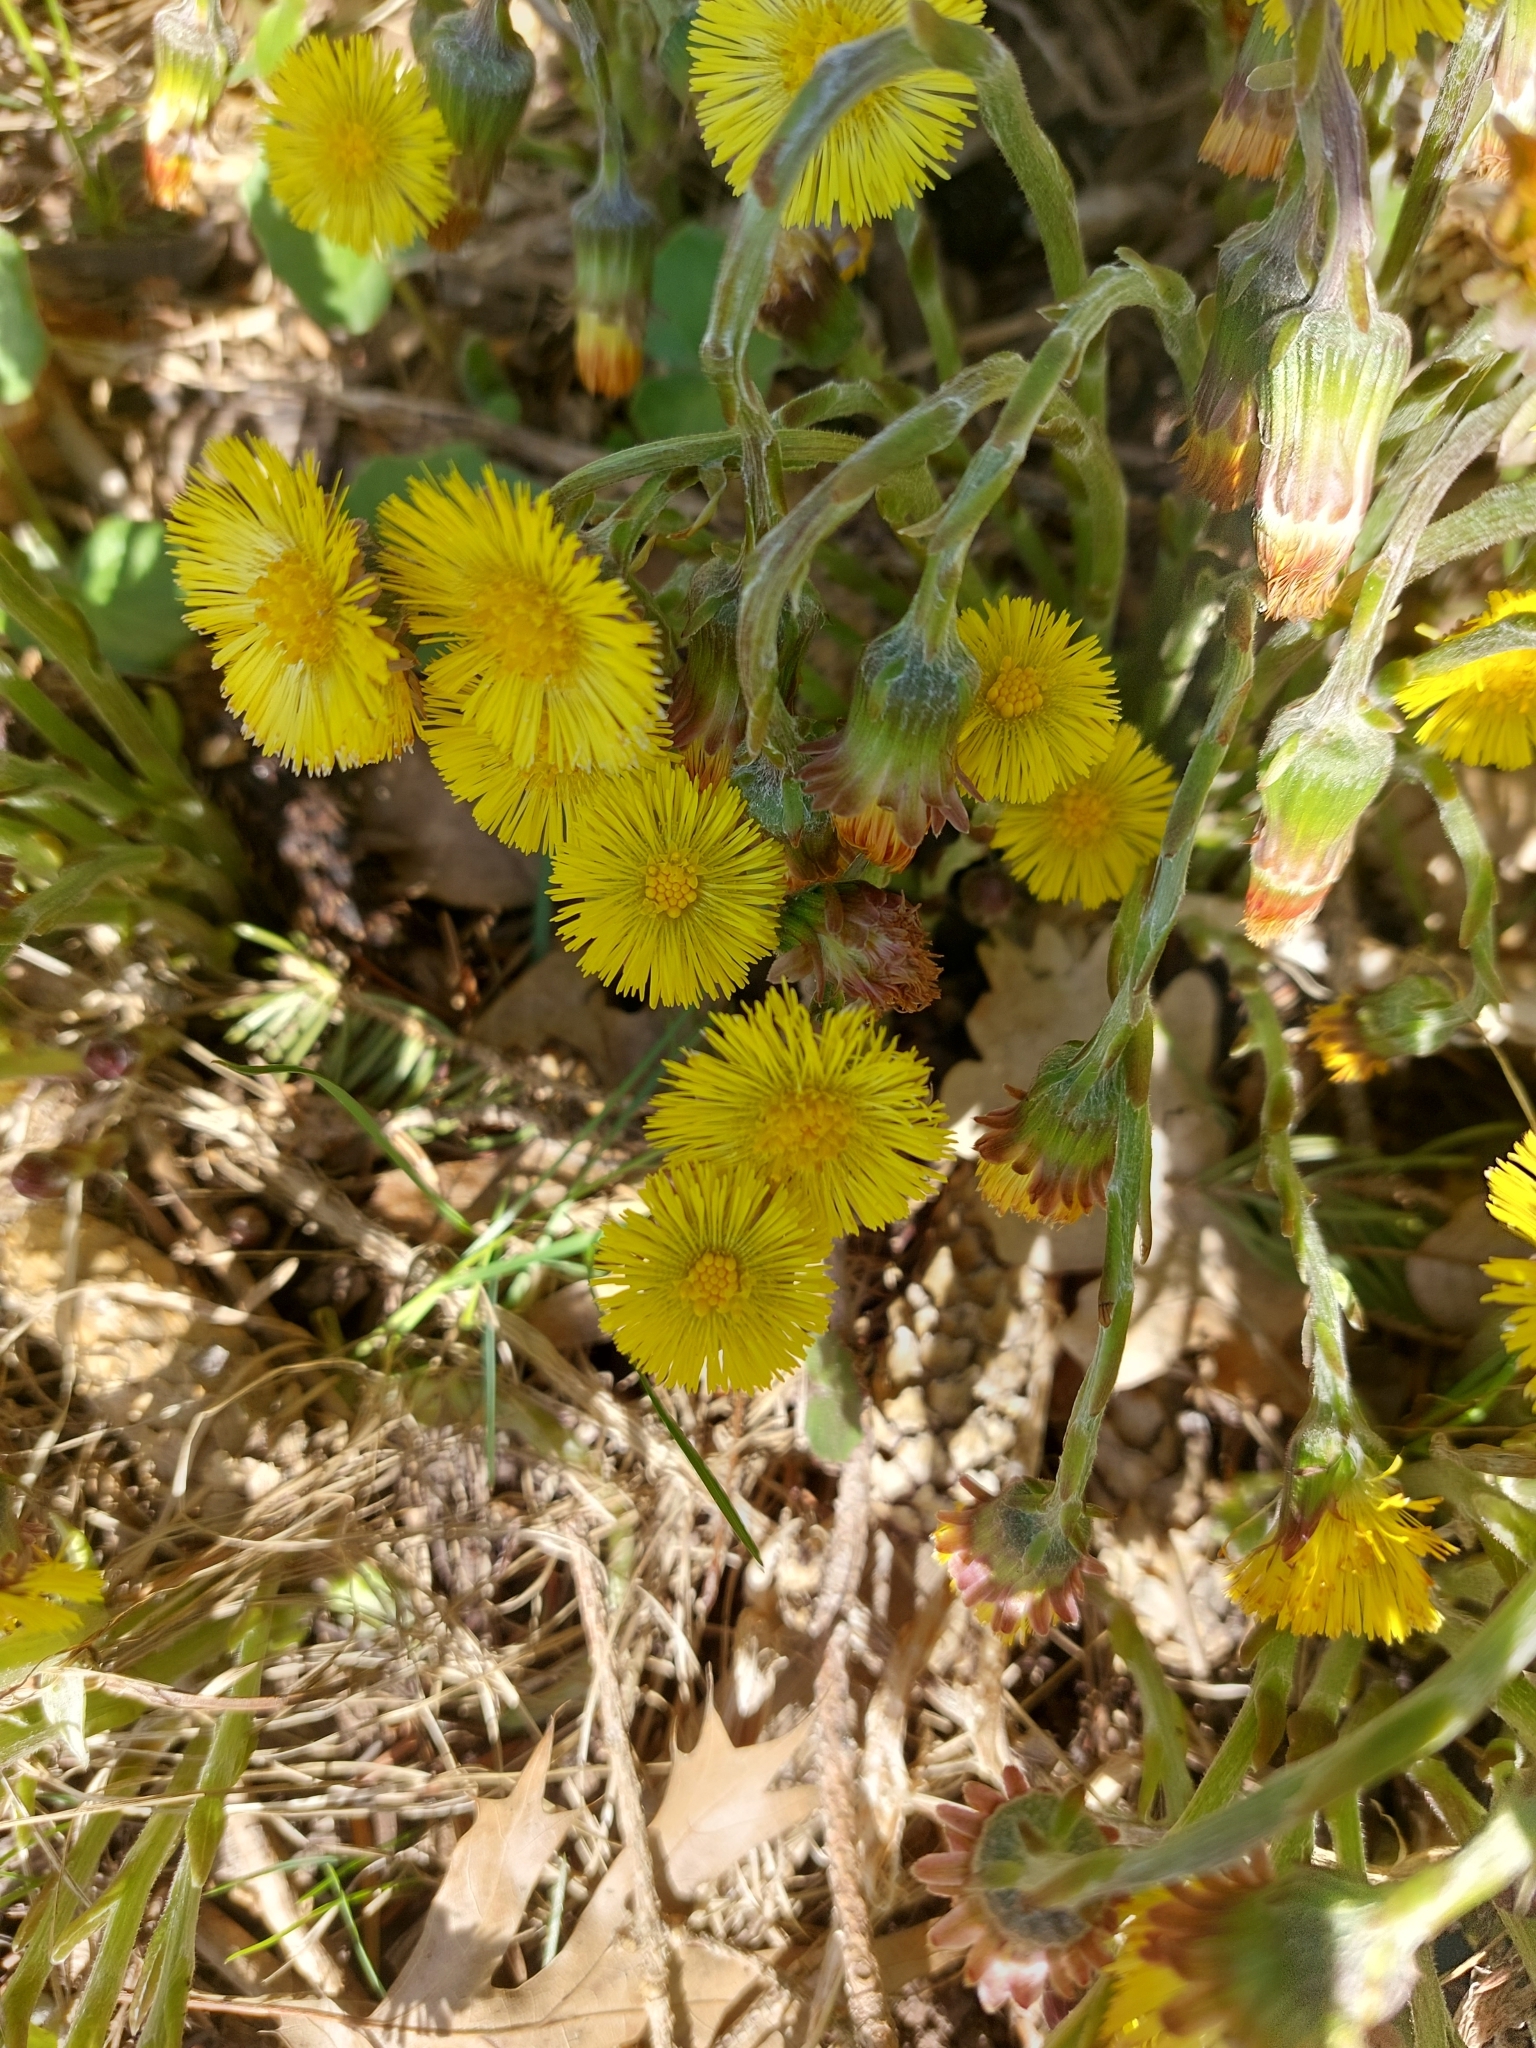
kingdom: Plantae
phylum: Tracheophyta
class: Magnoliopsida
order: Asterales
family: Asteraceae
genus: Tussilago
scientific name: Tussilago farfara
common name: Coltsfoot
